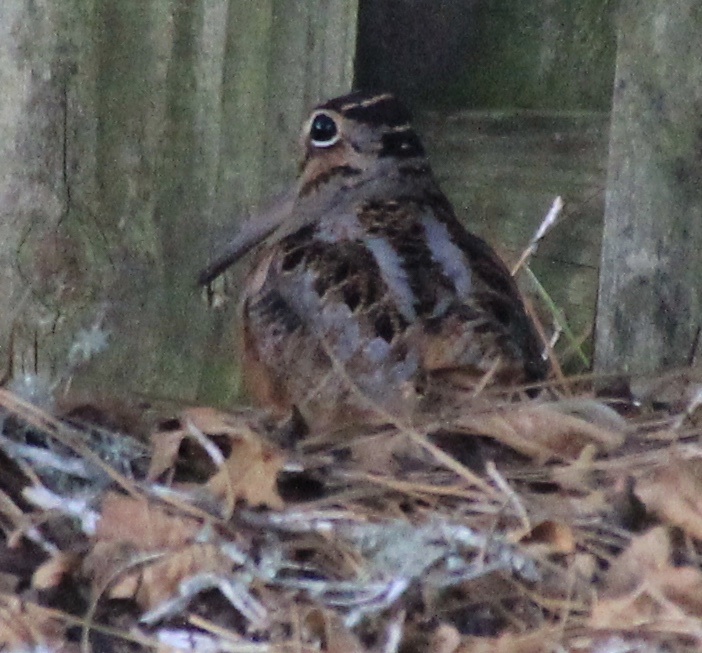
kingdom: Animalia
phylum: Chordata
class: Aves
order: Charadriiformes
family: Scolopacidae
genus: Scolopax
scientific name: Scolopax minor
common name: American woodcock
